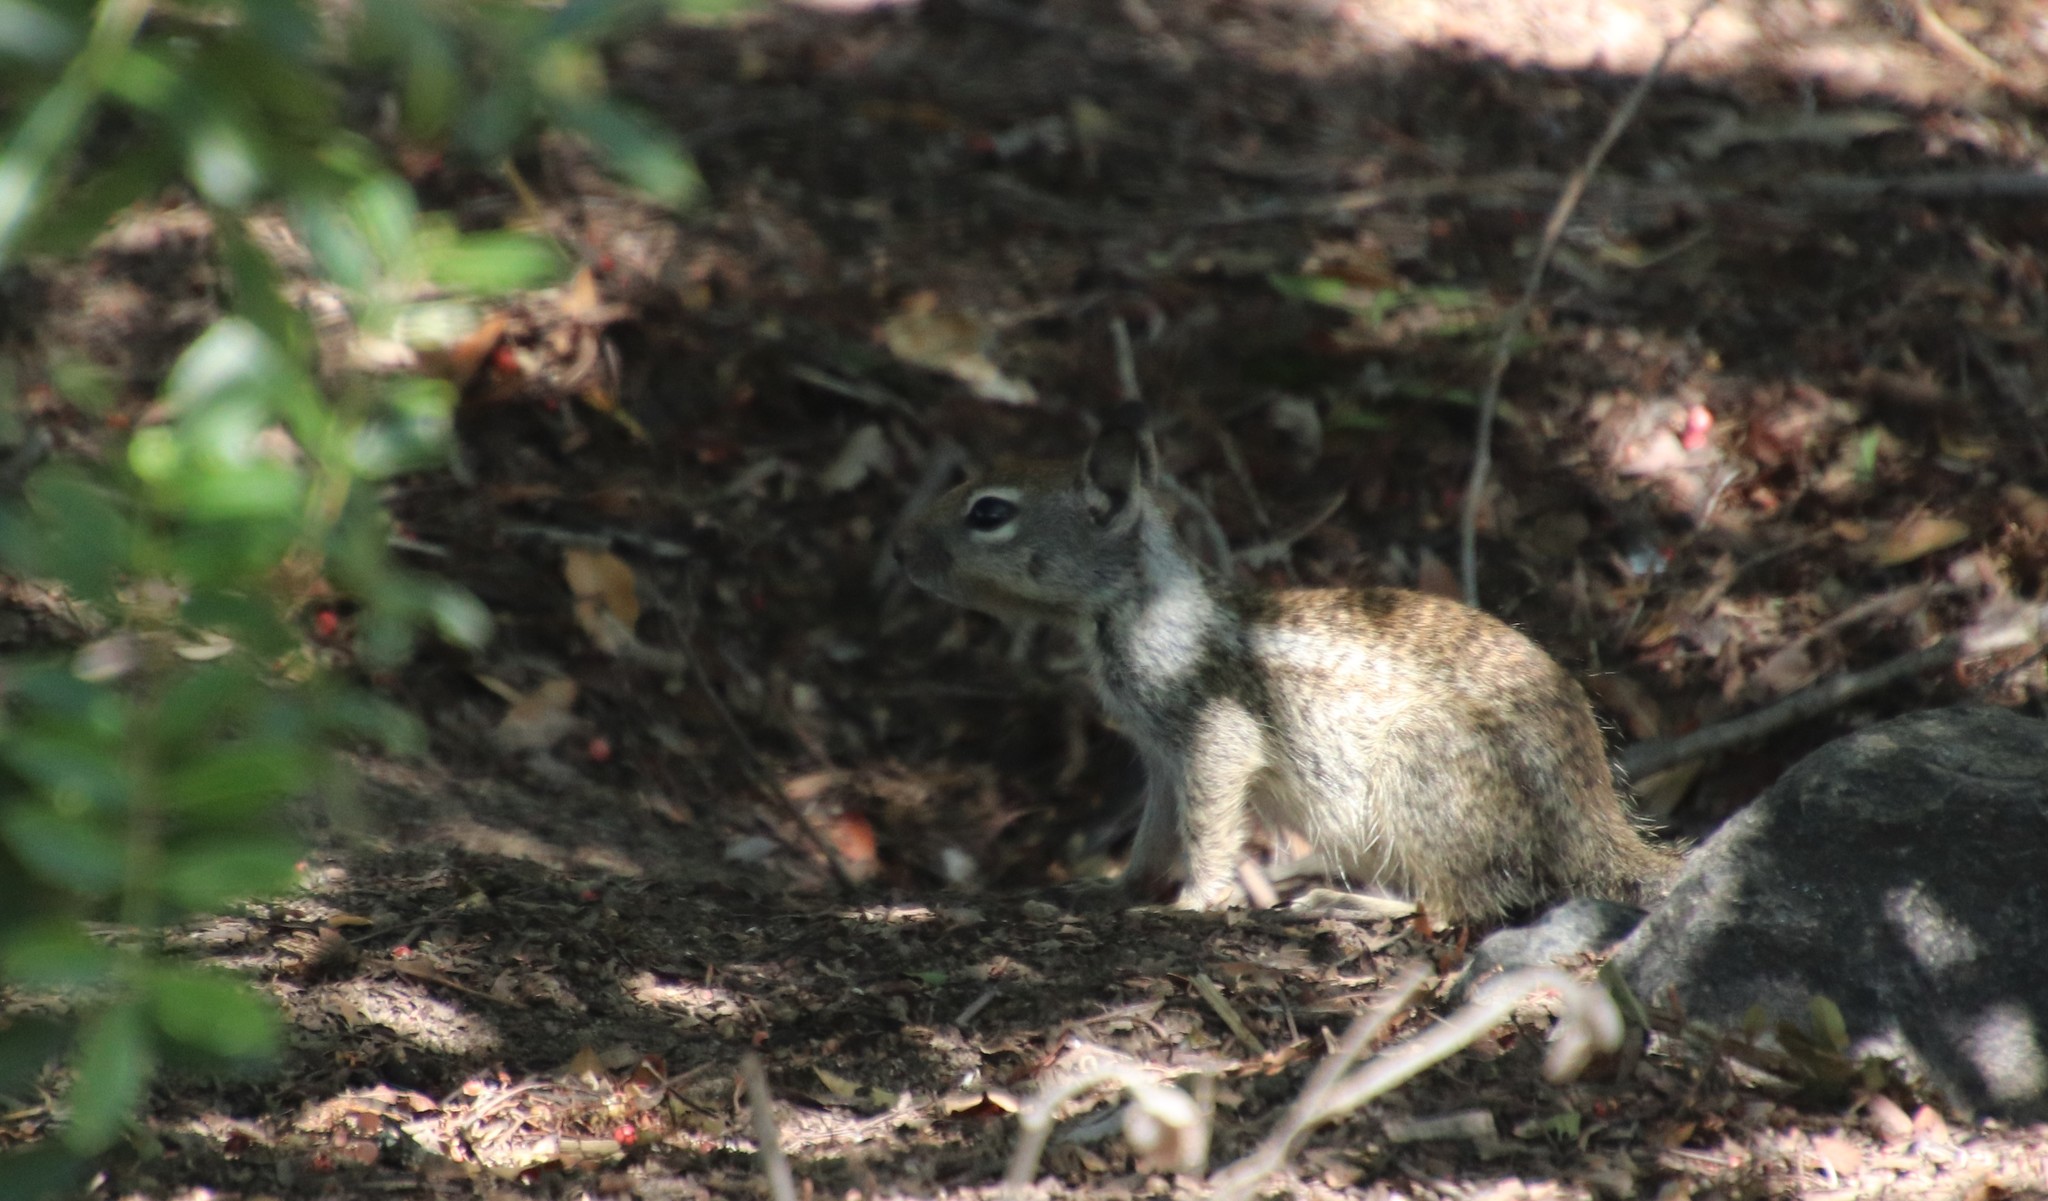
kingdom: Animalia
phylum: Chordata
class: Mammalia
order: Rodentia
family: Sciuridae
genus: Otospermophilus
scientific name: Otospermophilus beecheyi
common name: California ground squirrel
